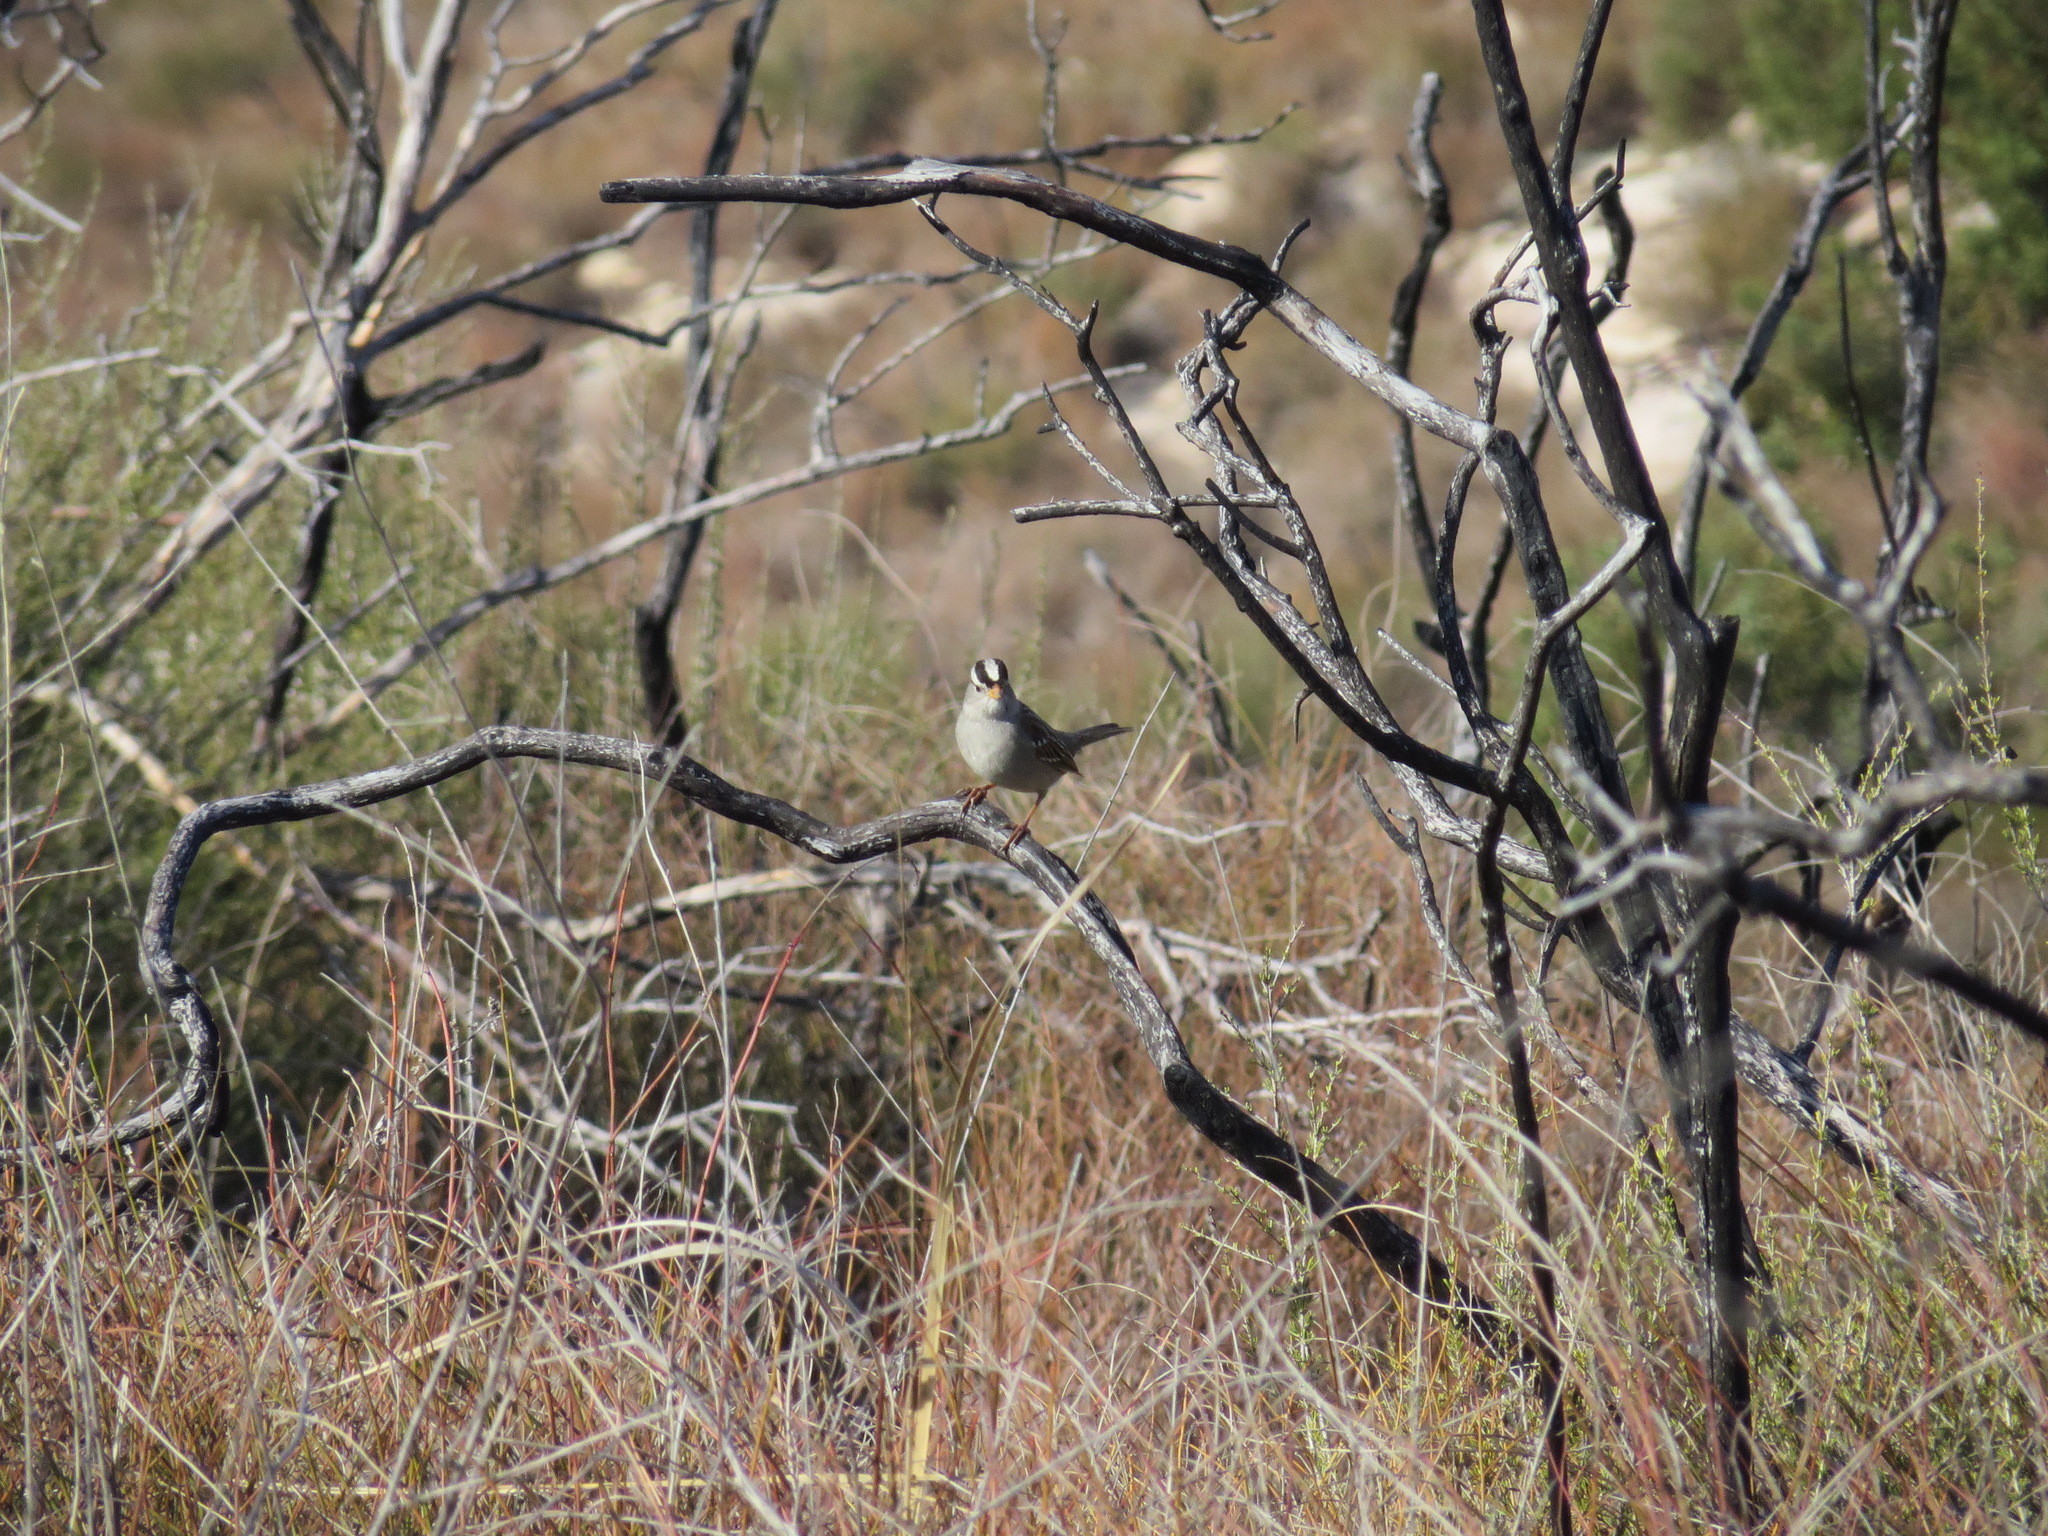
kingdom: Animalia
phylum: Chordata
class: Aves
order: Passeriformes
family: Passerellidae
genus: Zonotrichia
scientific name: Zonotrichia leucophrys
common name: White-crowned sparrow
